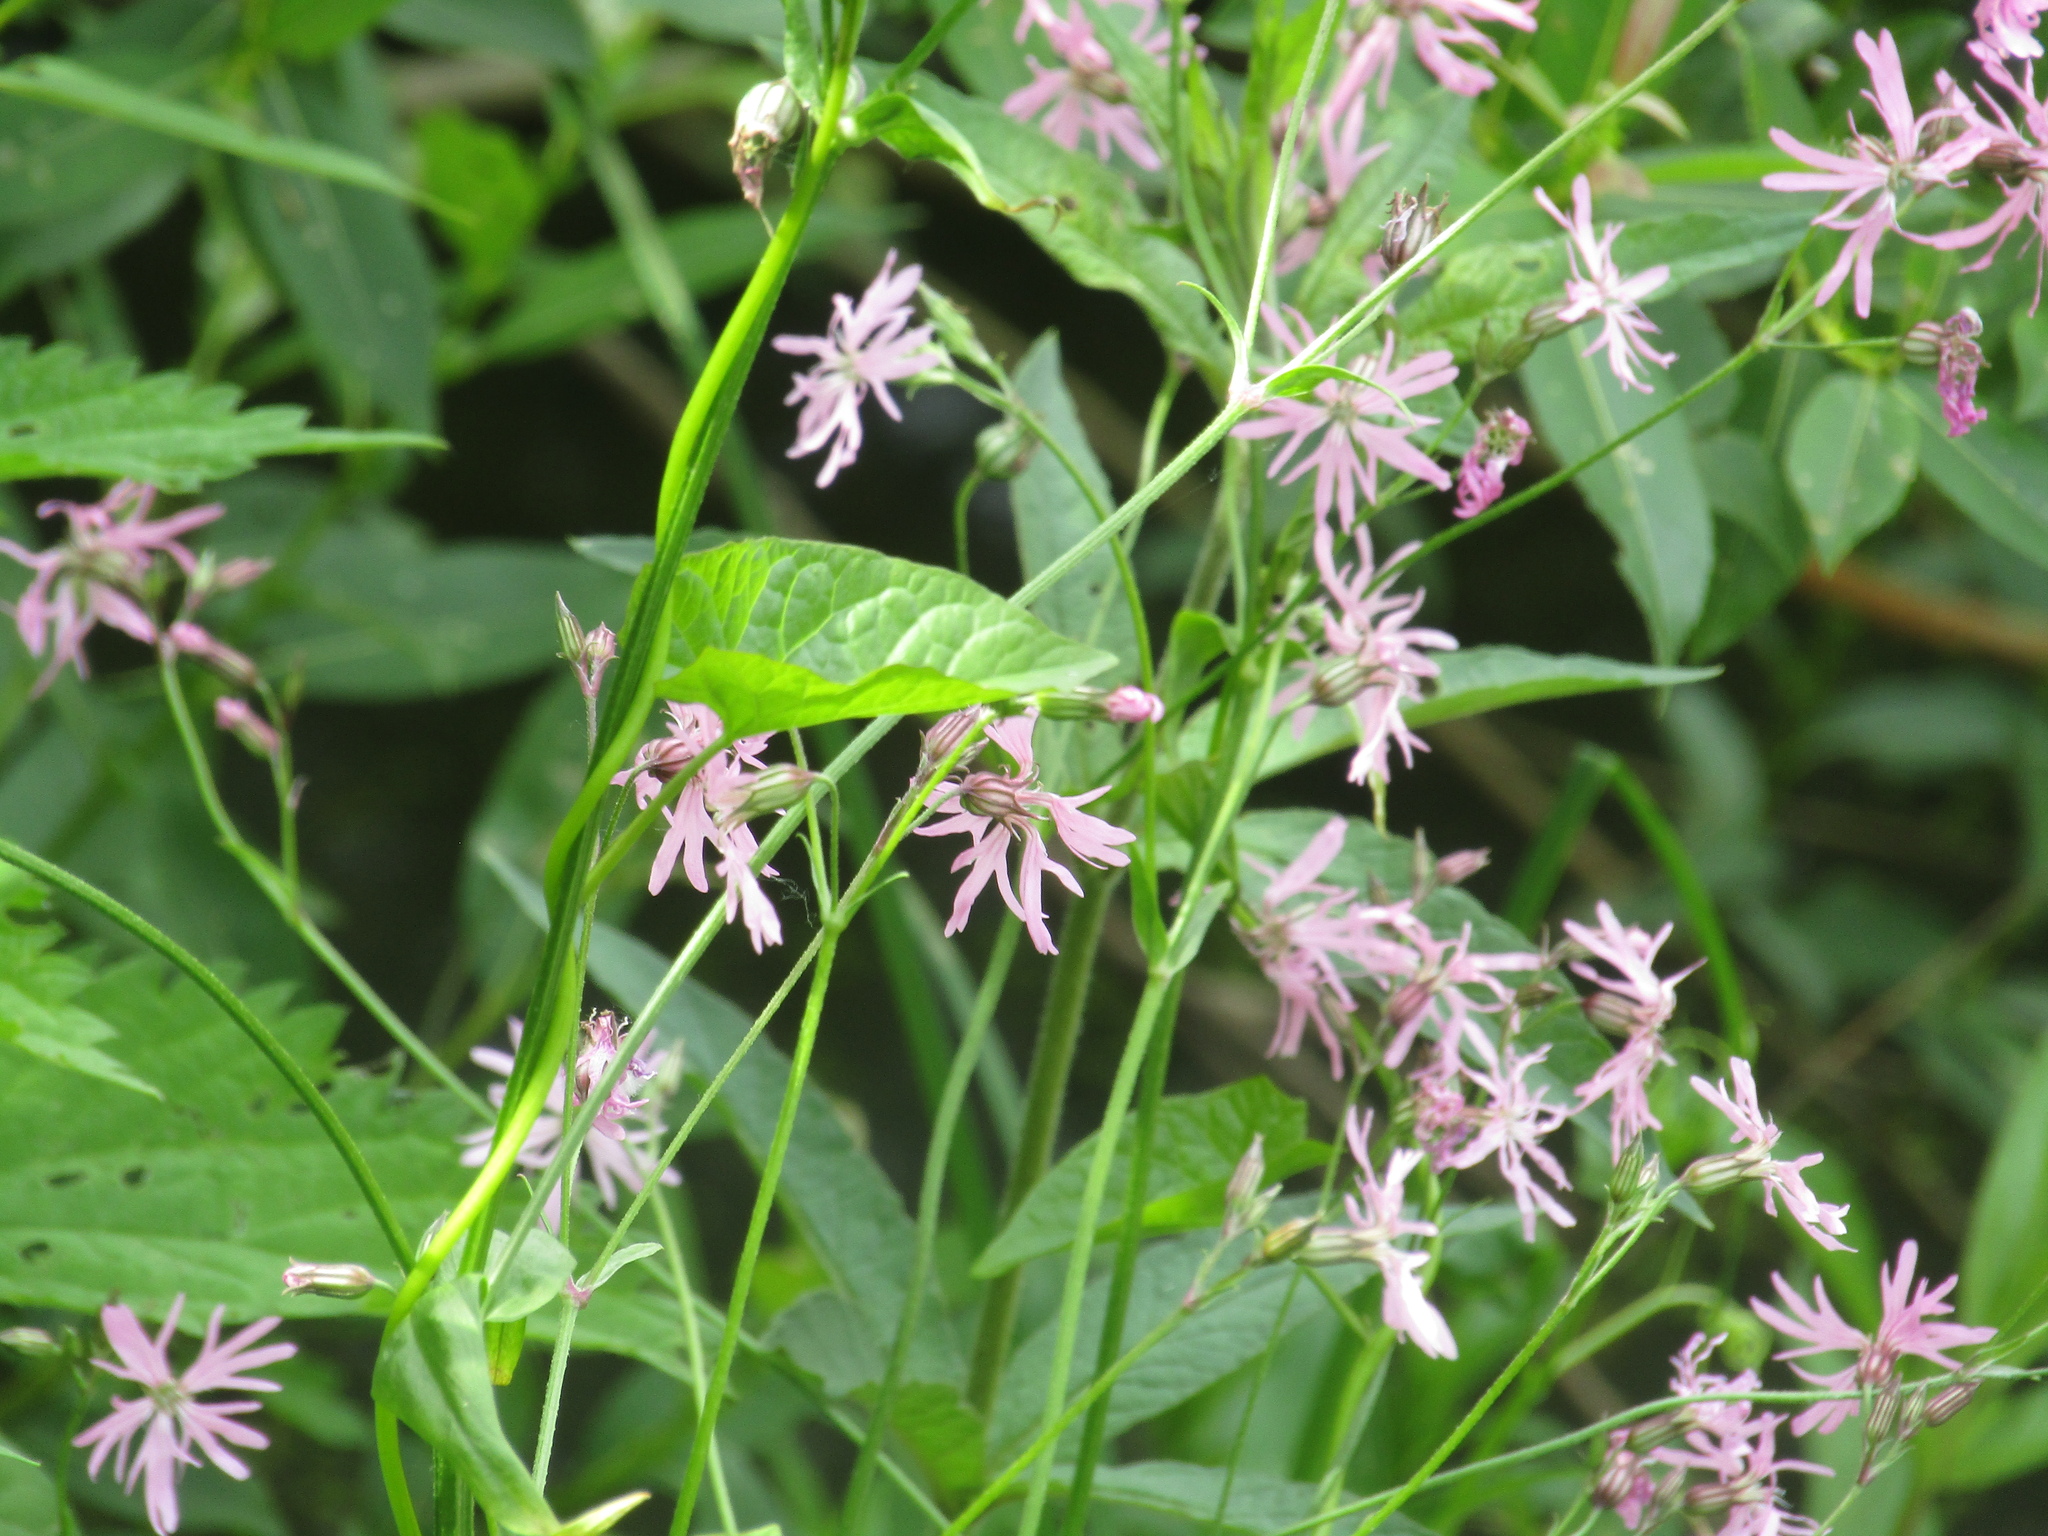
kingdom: Plantae
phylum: Tracheophyta
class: Magnoliopsida
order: Caryophyllales
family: Caryophyllaceae
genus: Silene
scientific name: Silene flos-cuculi
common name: Ragged-robin
